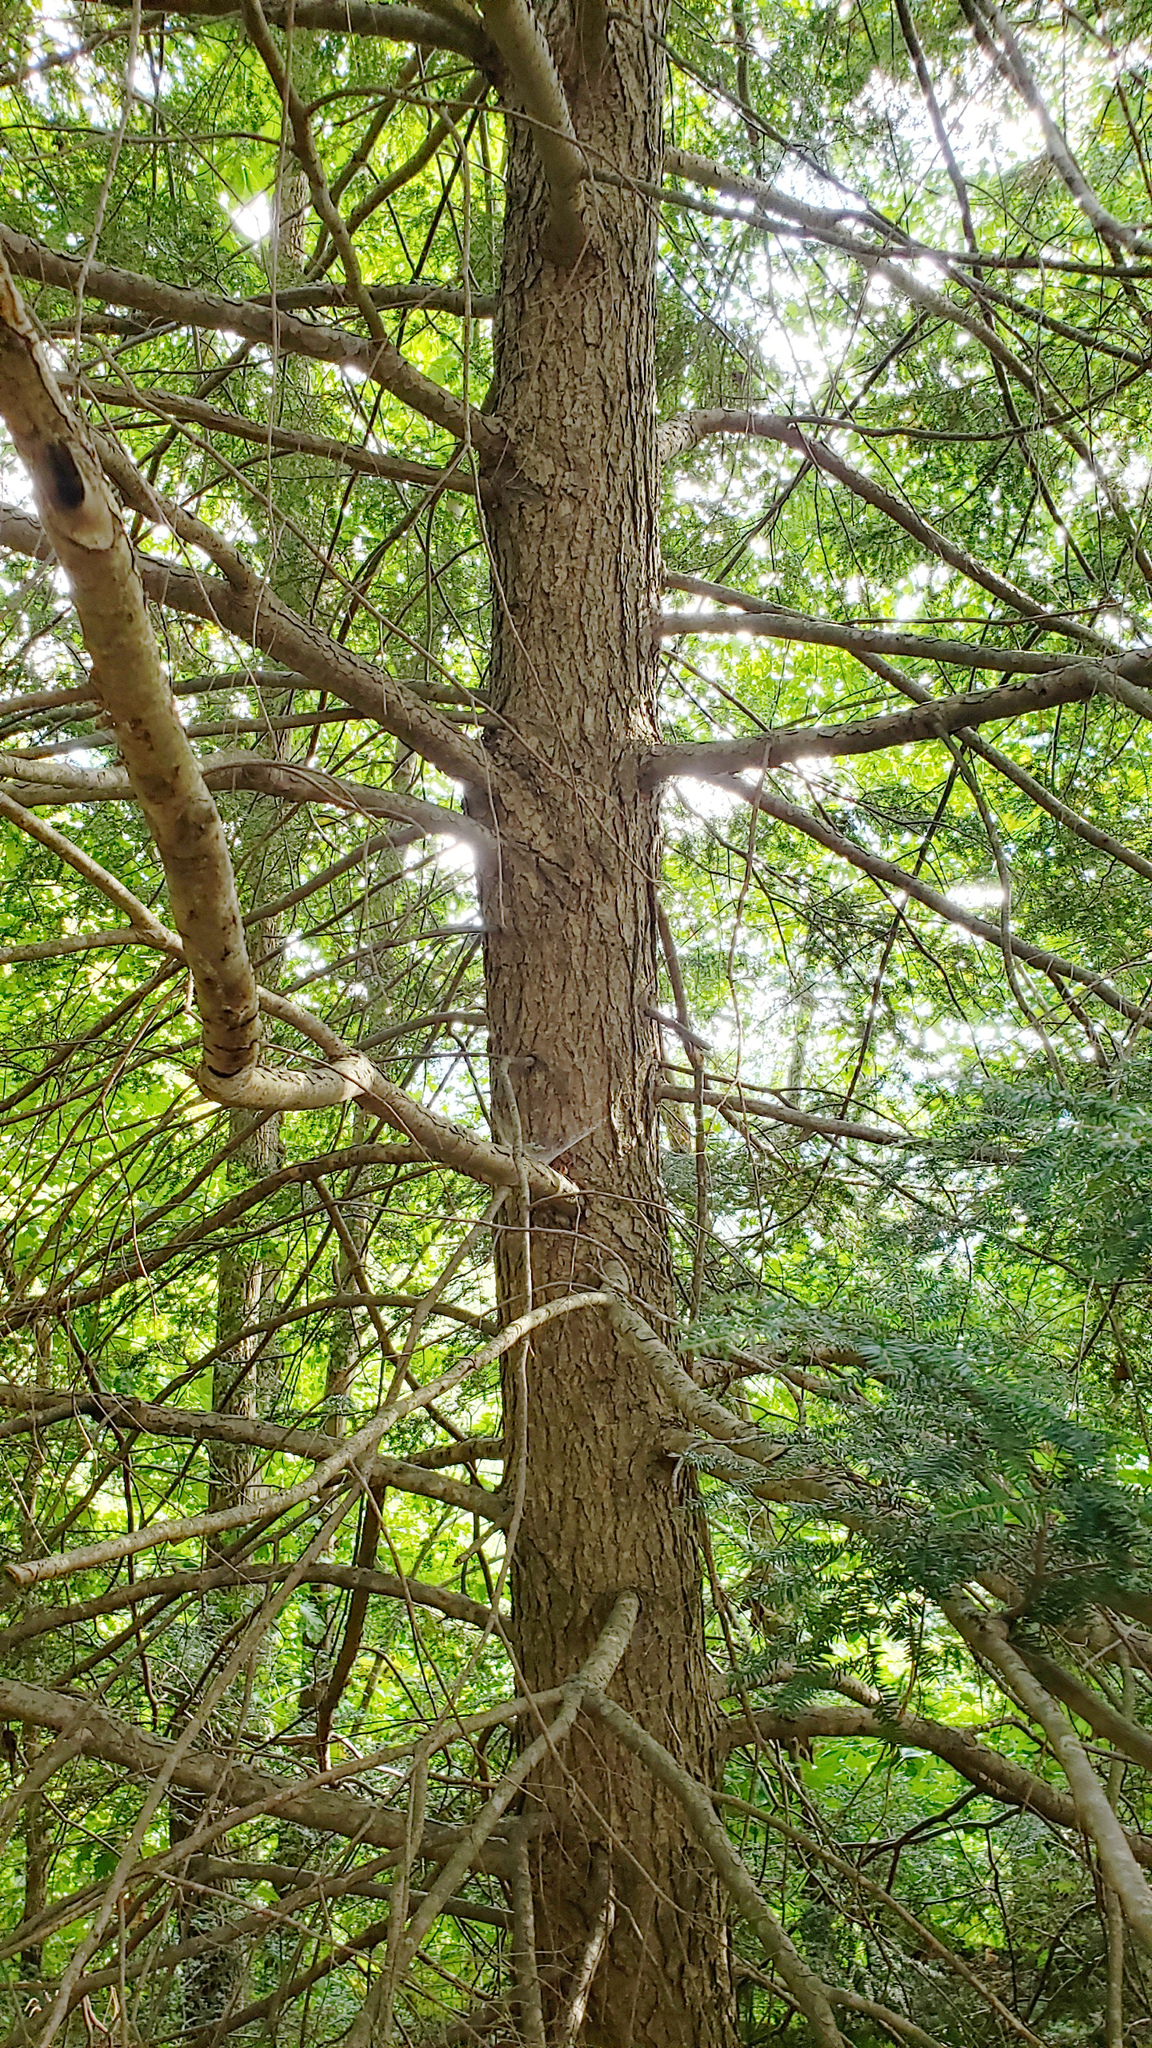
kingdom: Plantae
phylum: Tracheophyta
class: Pinopsida
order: Pinales
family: Pinaceae
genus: Tsuga
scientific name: Tsuga canadensis
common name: Eastern hemlock
